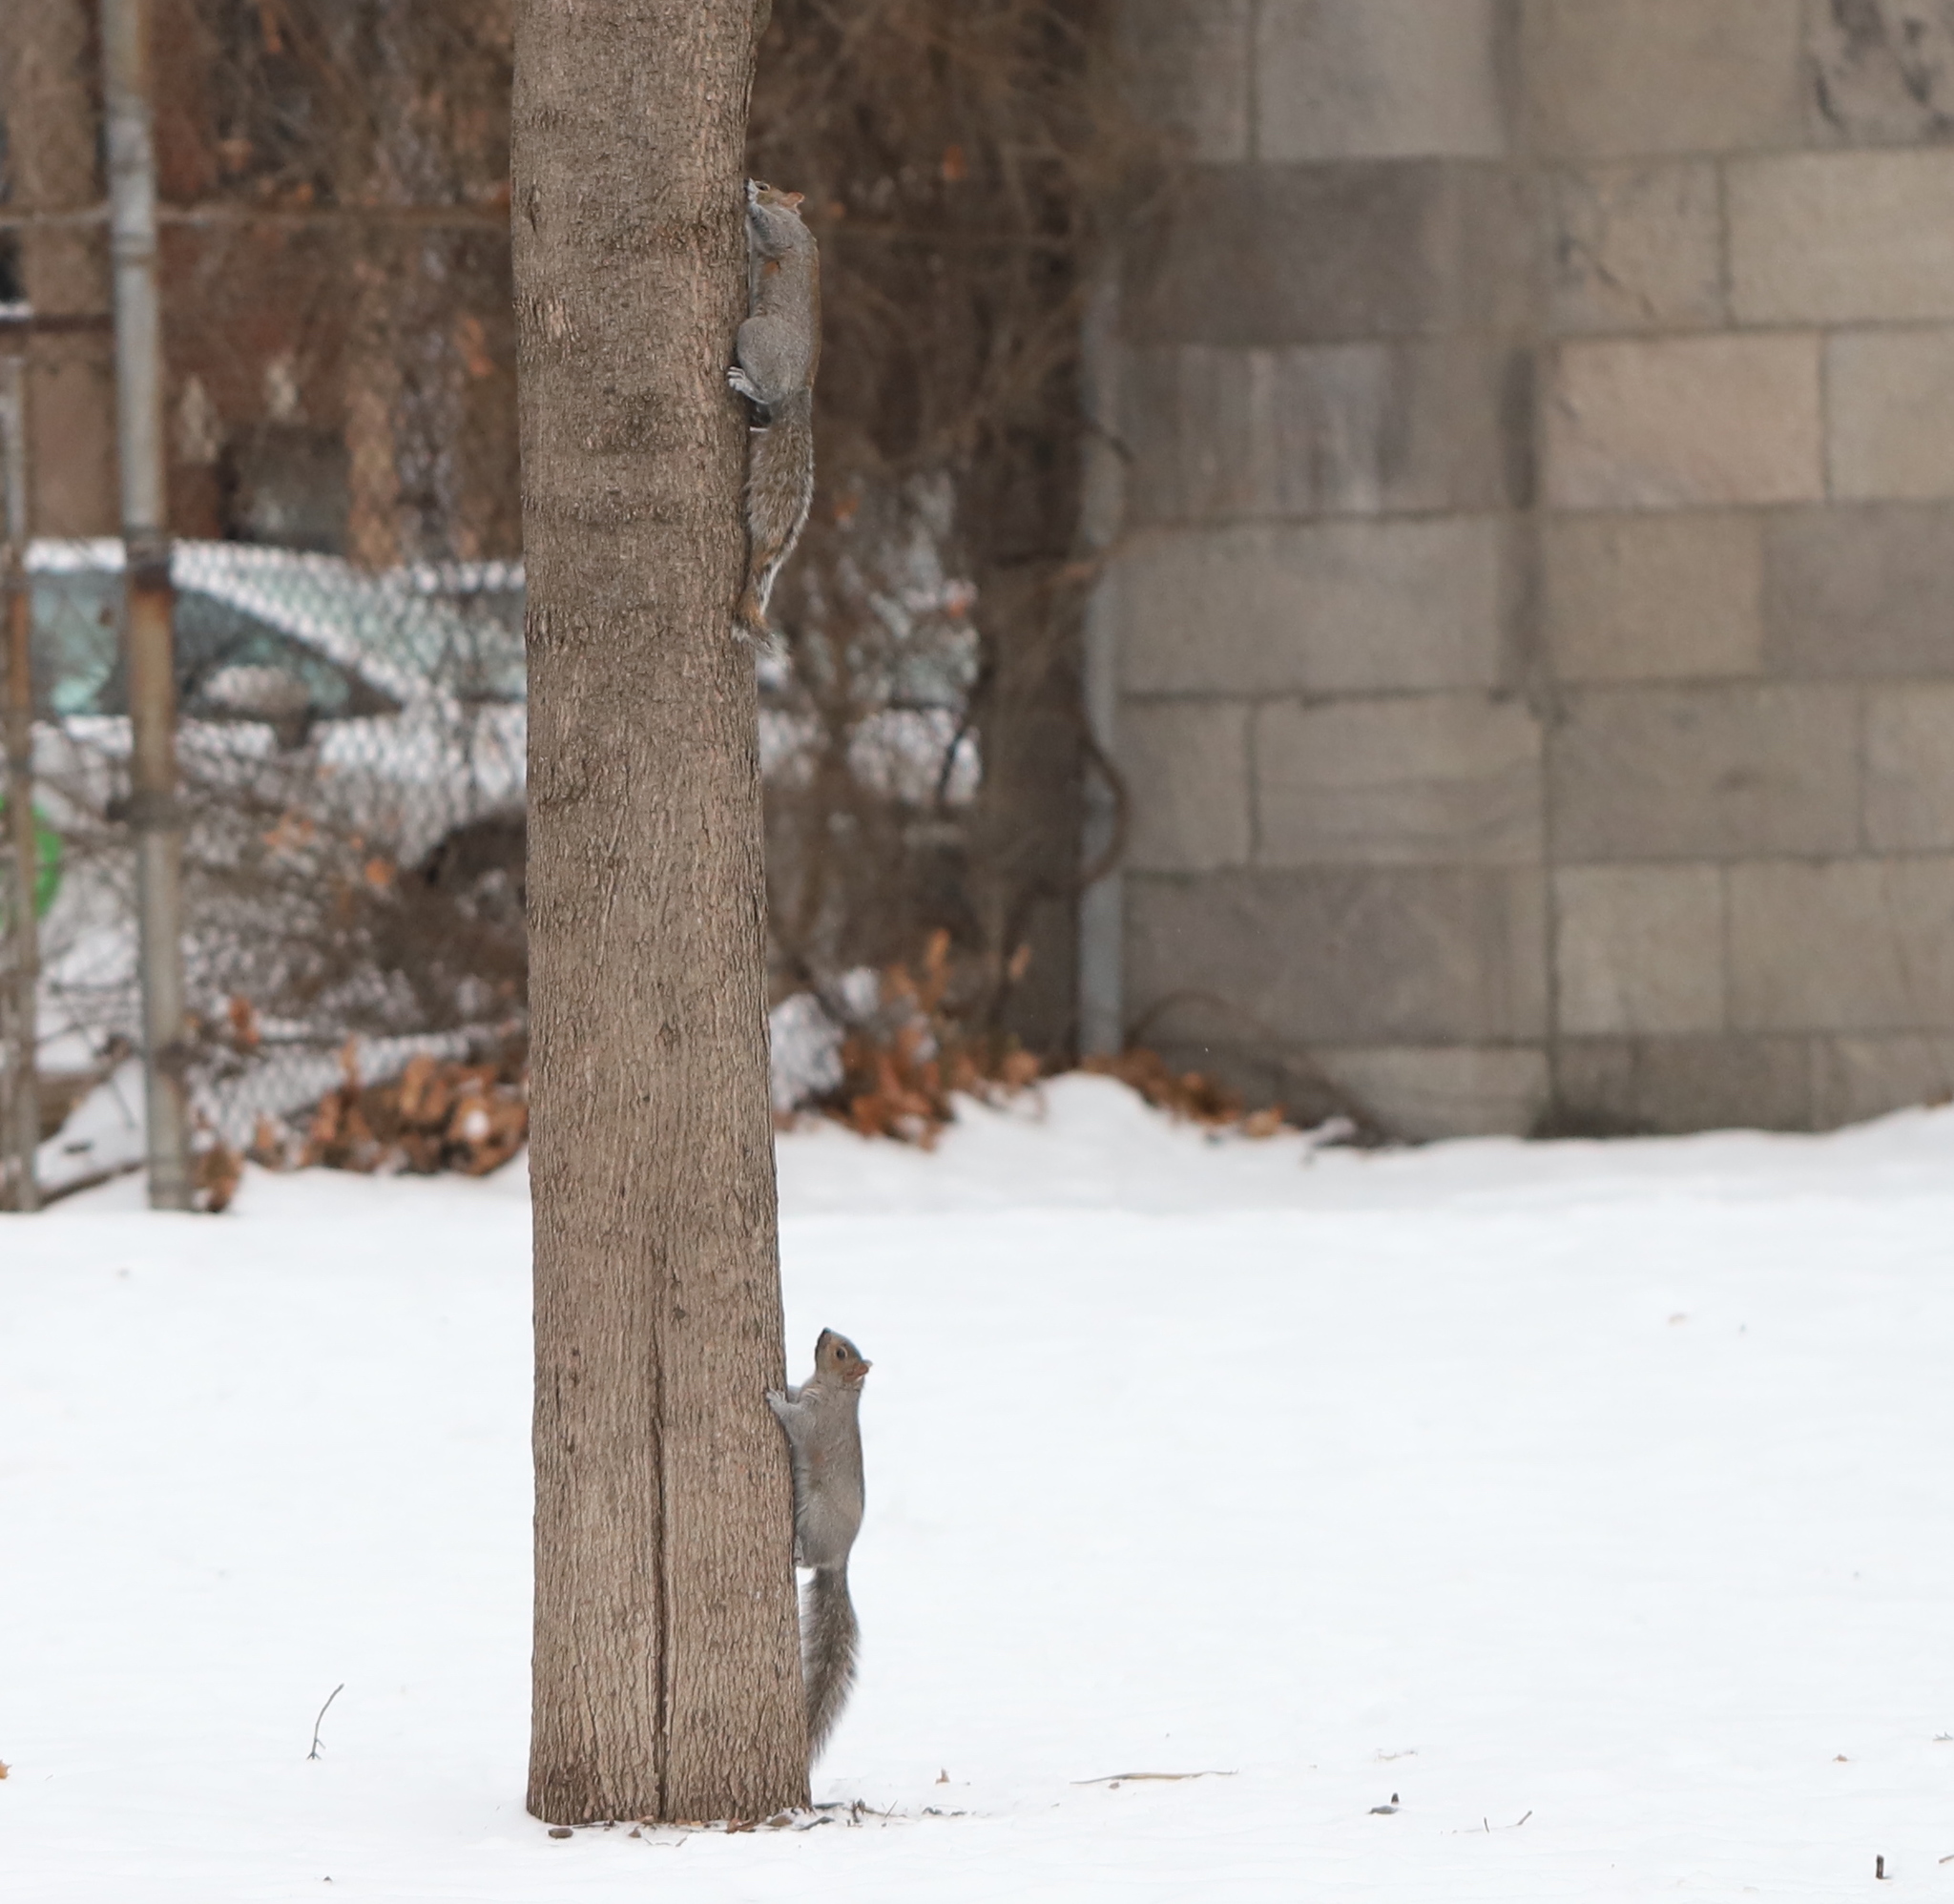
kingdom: Animalia
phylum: Chordata
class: Mammalia
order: Rodentia
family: Sciuridae
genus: Sciurus
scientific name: Sciurus carolinensis
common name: Eastern gray squirrel
